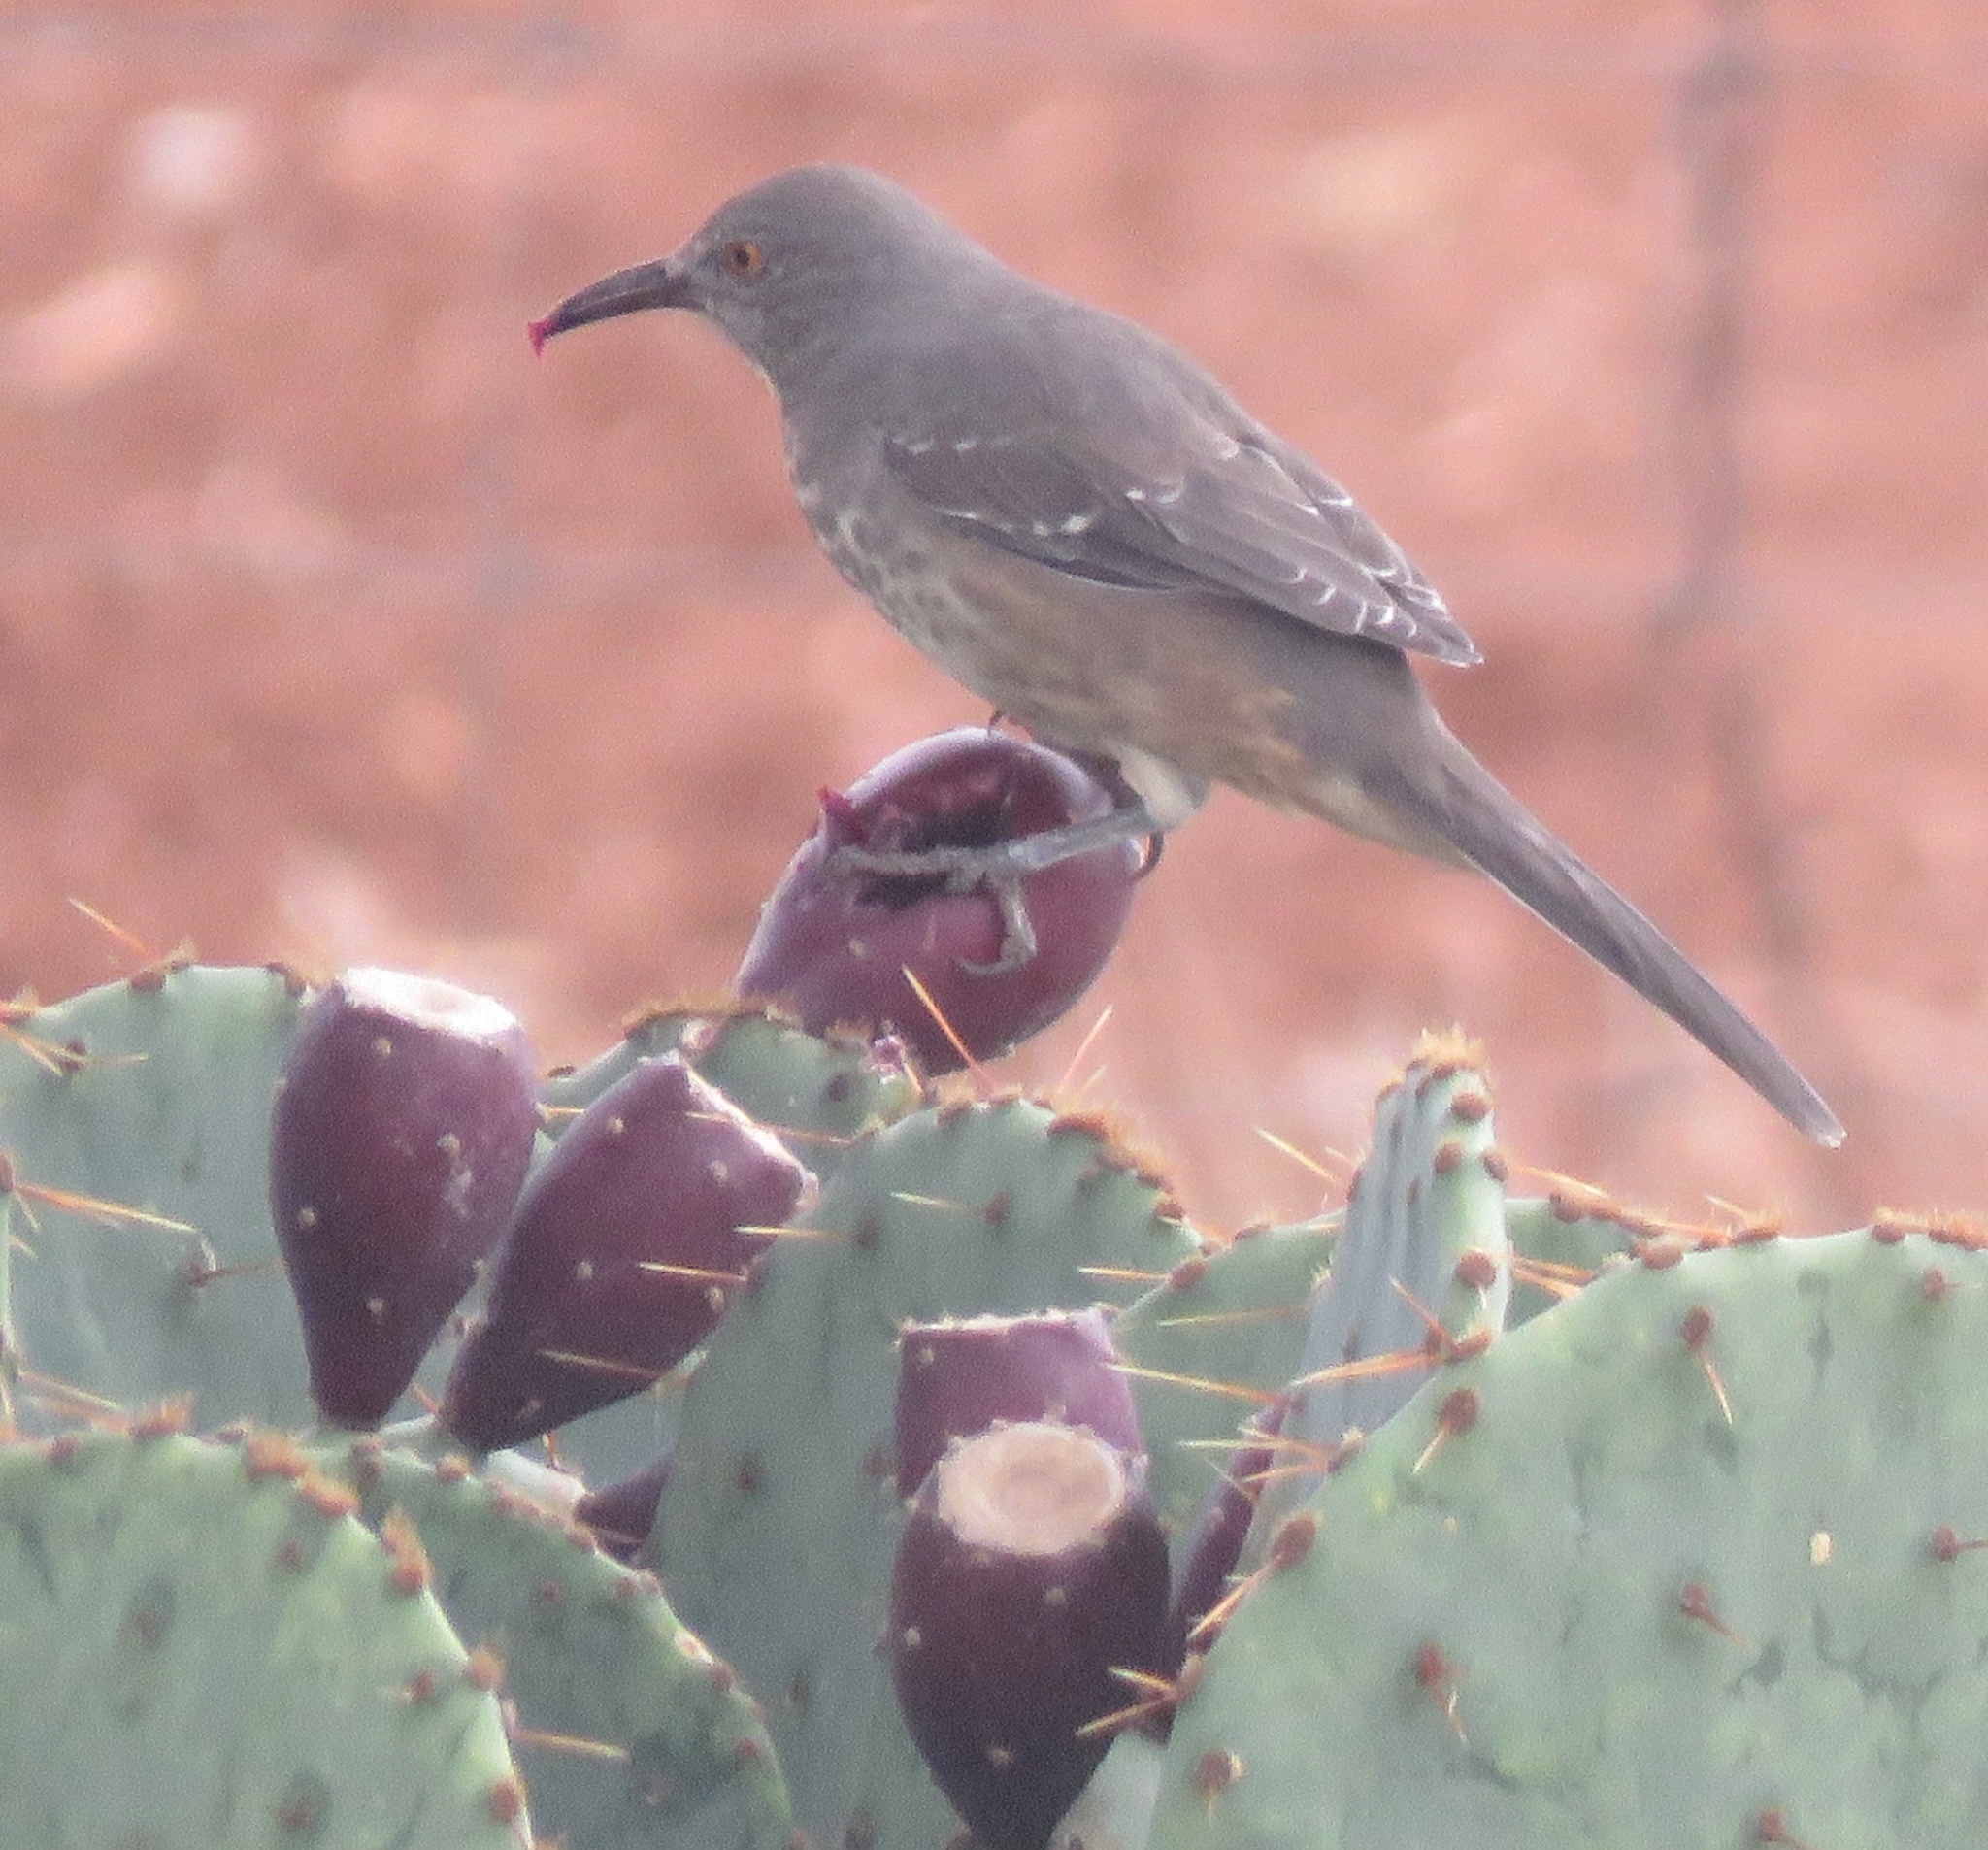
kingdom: Animalia
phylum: Chordata
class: Aves
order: Passeriformes
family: Mimidae
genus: Toxostoma
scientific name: Toxostoma curvirostre
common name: Curve-billed thrasher
